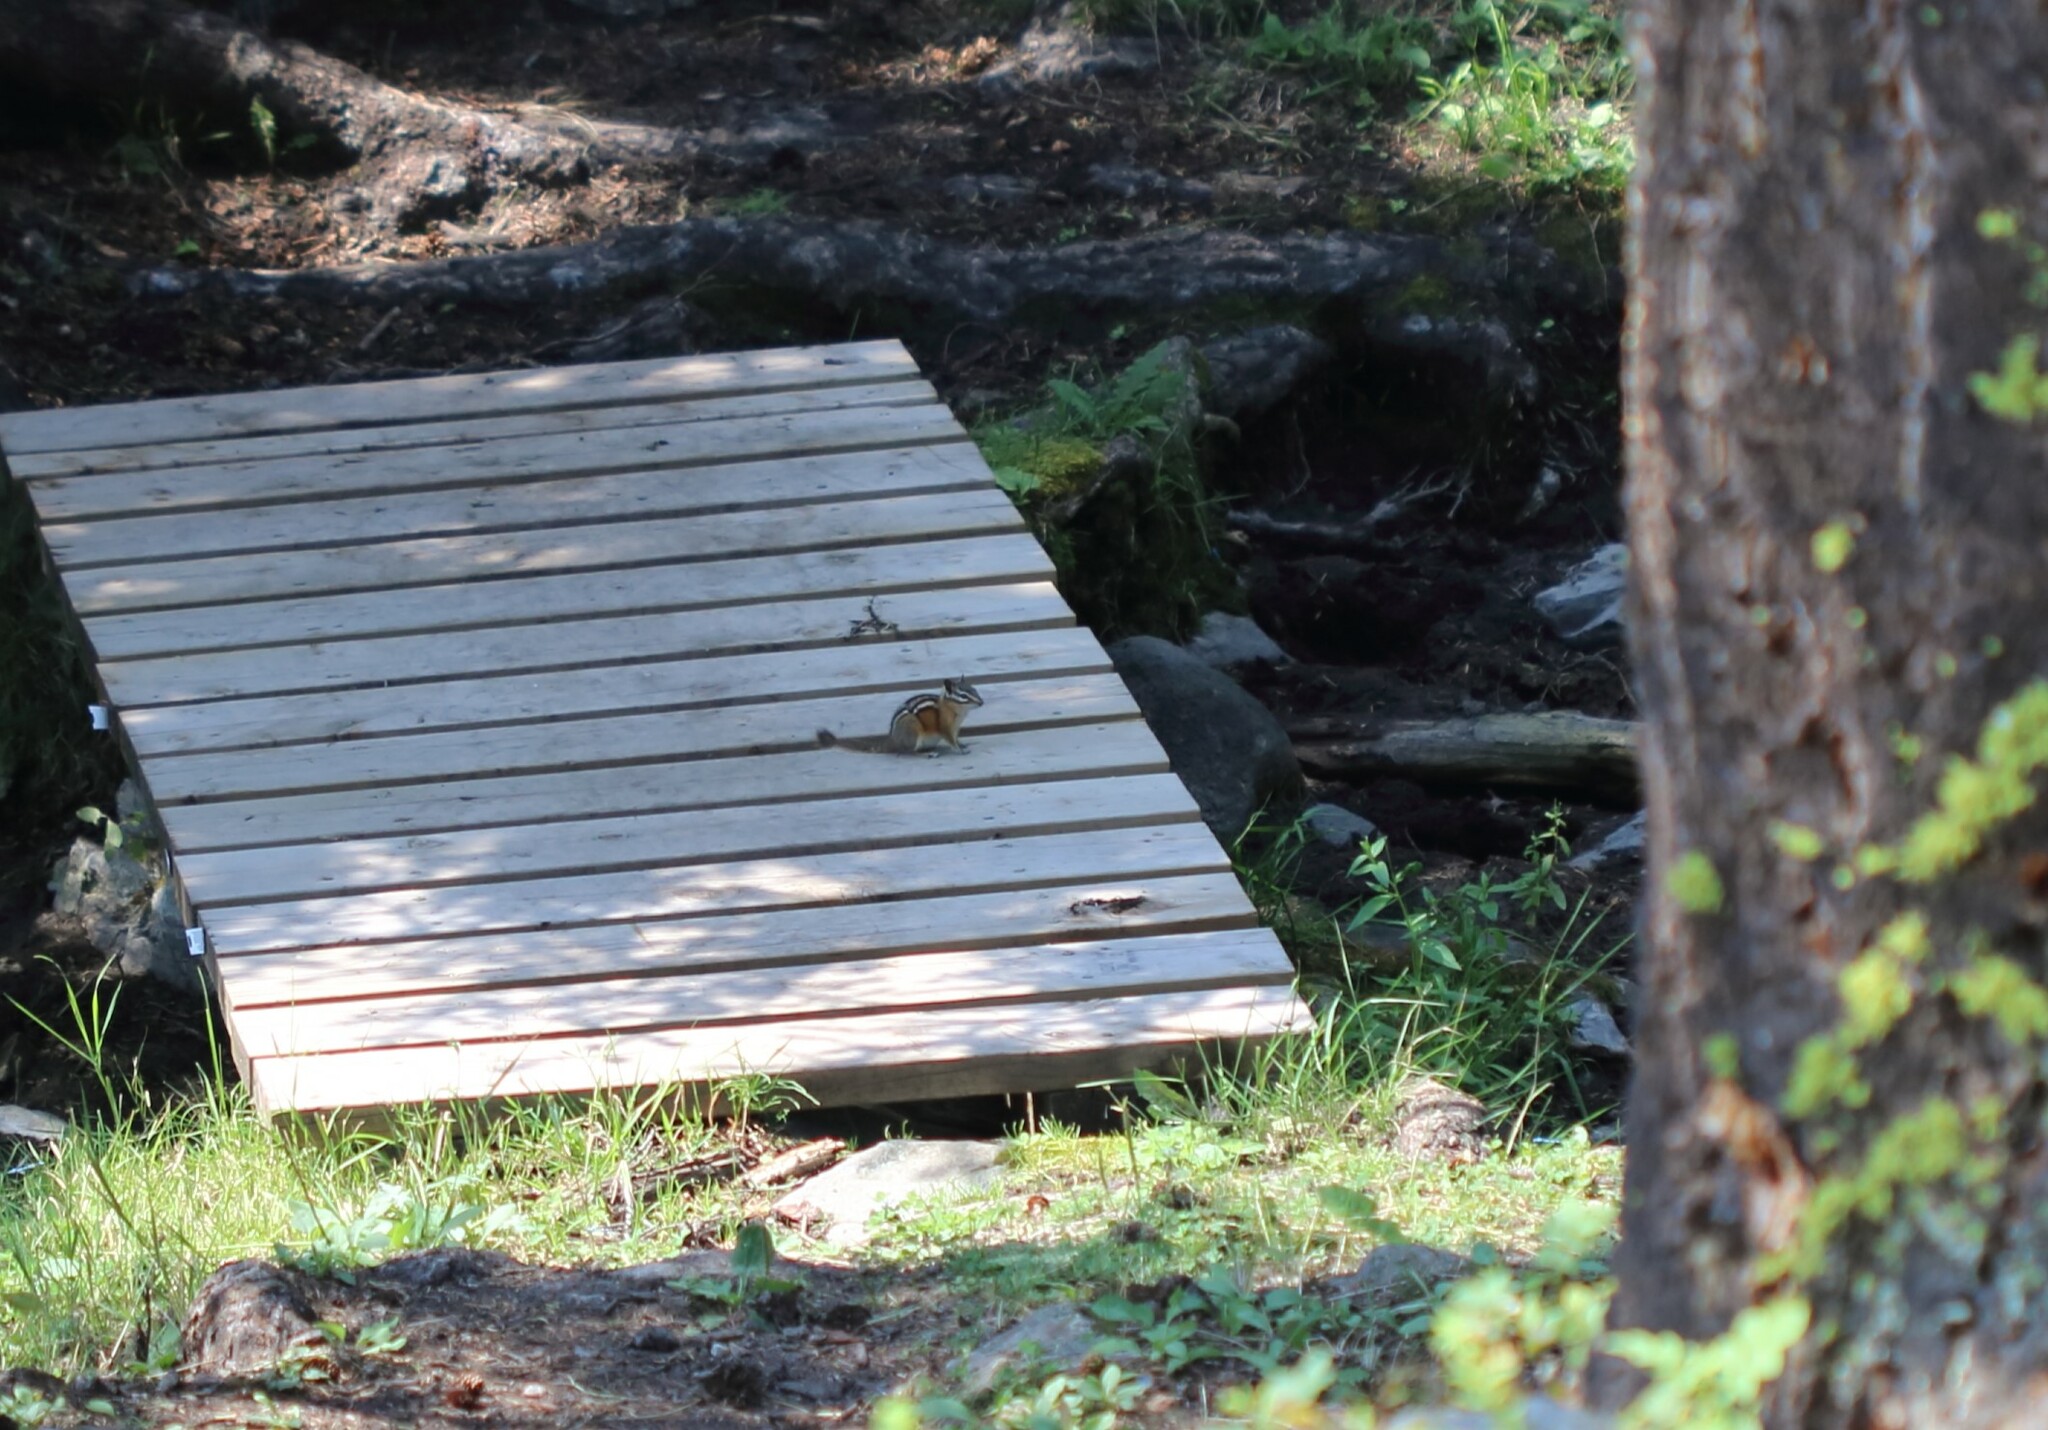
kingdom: Animalia
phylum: Chordata
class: Mammalia
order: Rodentia
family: Sciuridae
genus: Tamias
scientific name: Tamias amoenus
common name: Yellow-pine chipmunk
